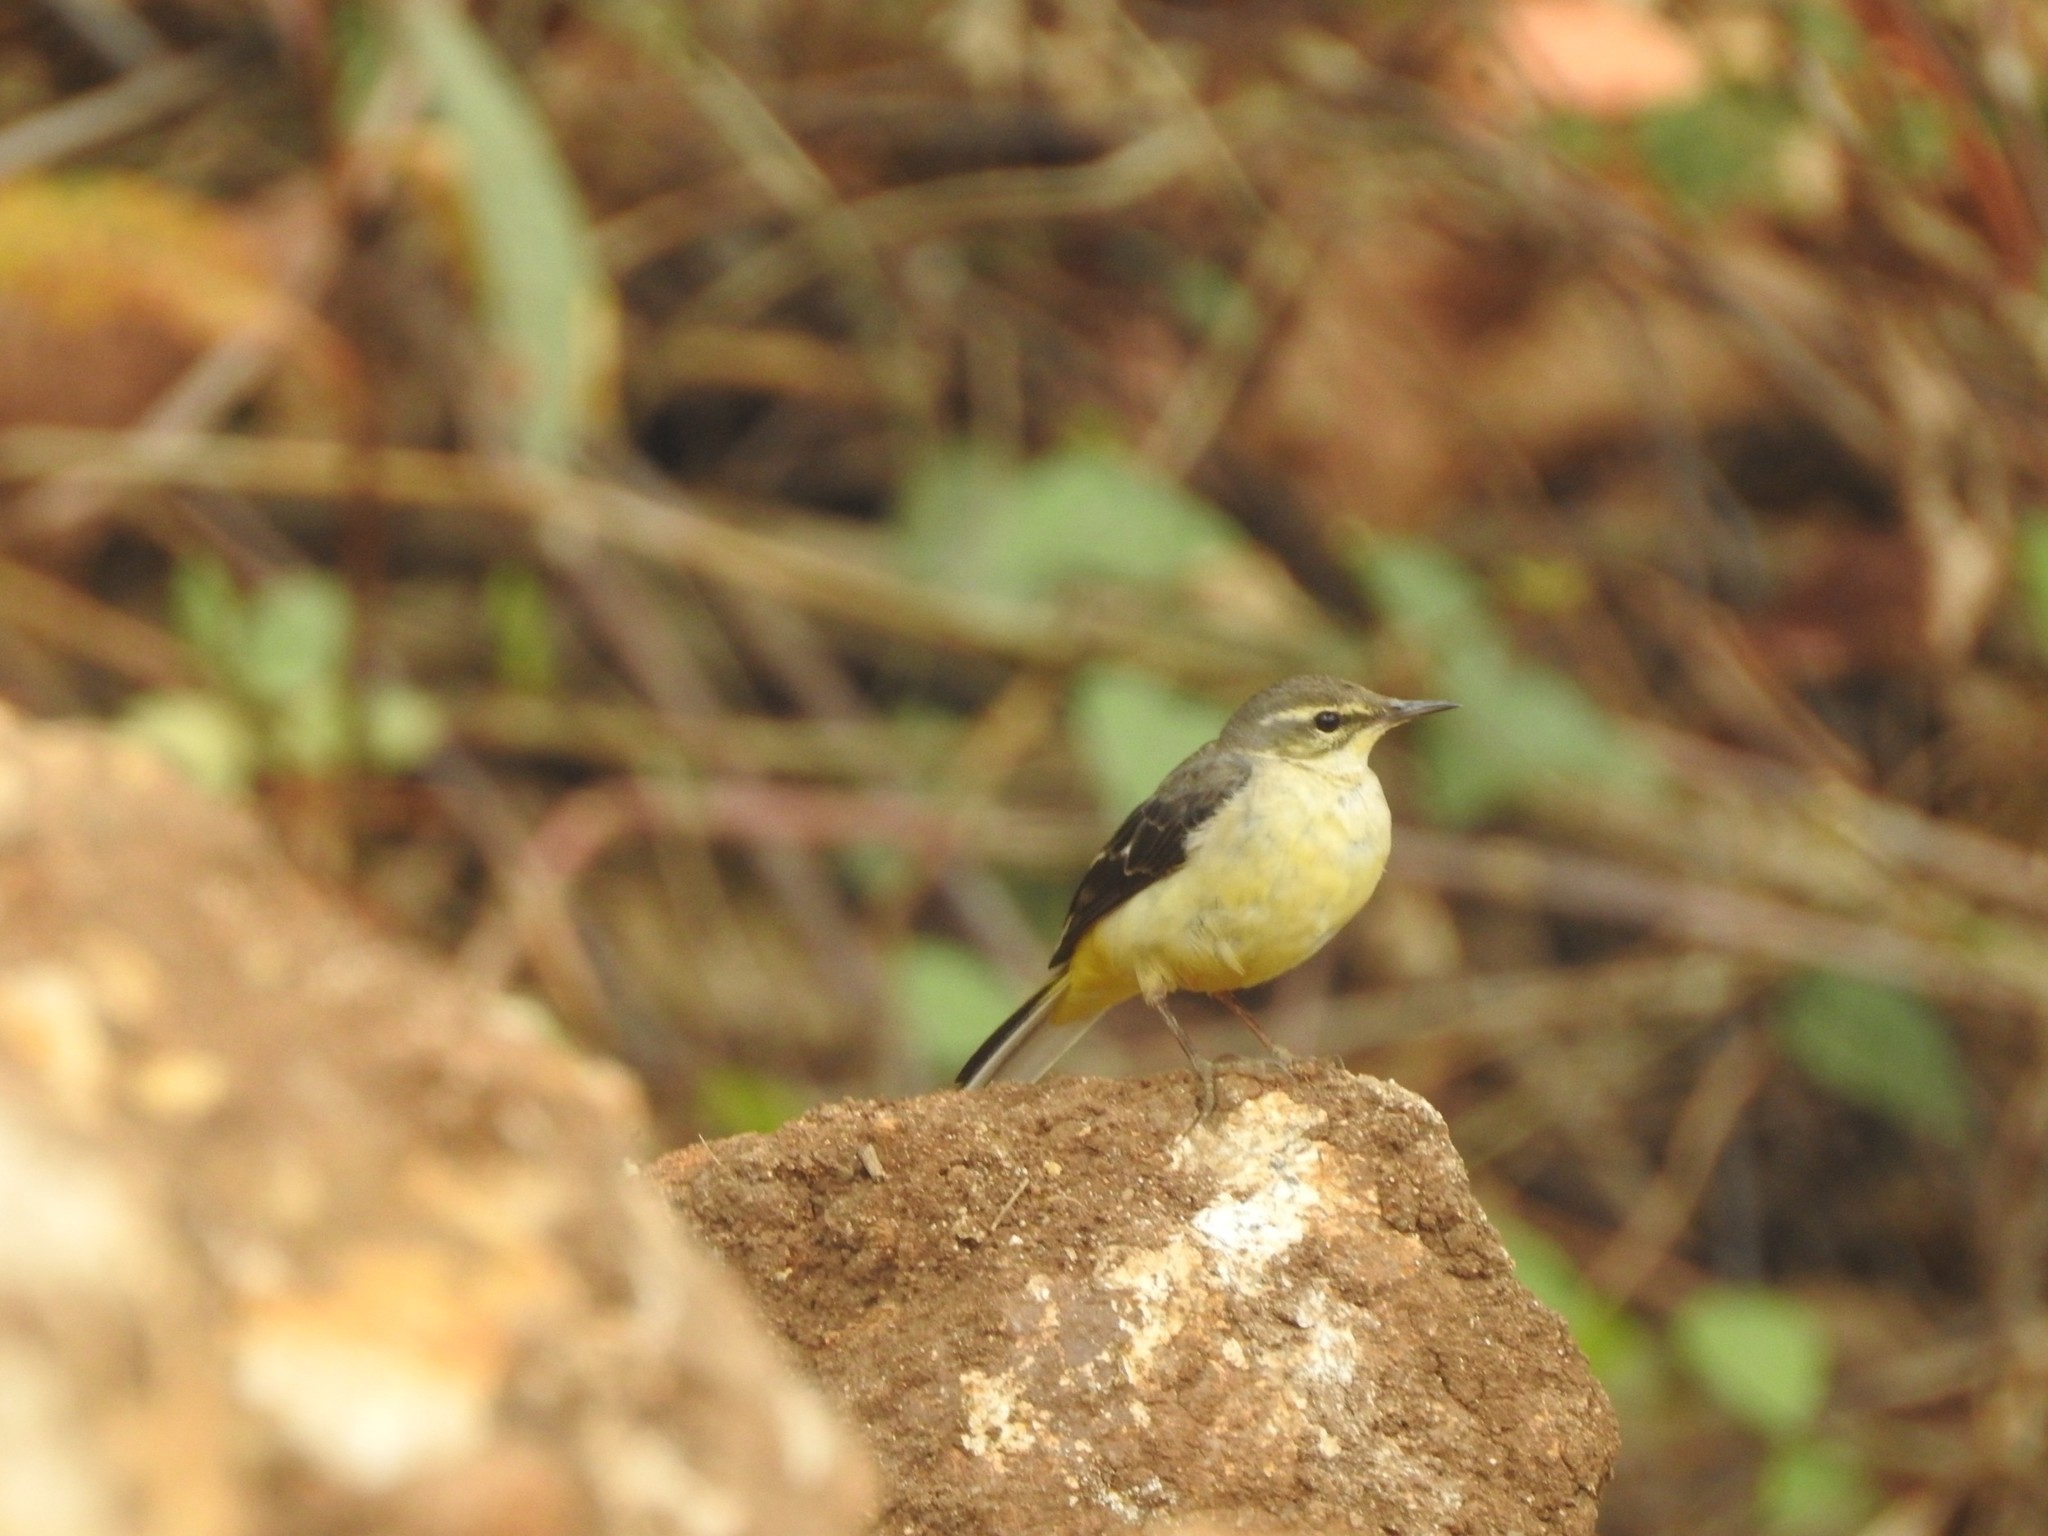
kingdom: Animalia
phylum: Chordata
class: Aves
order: Passeriformes
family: Motacillidae
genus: Motacilla
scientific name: Motacilla cinerea
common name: Grey wagtail
